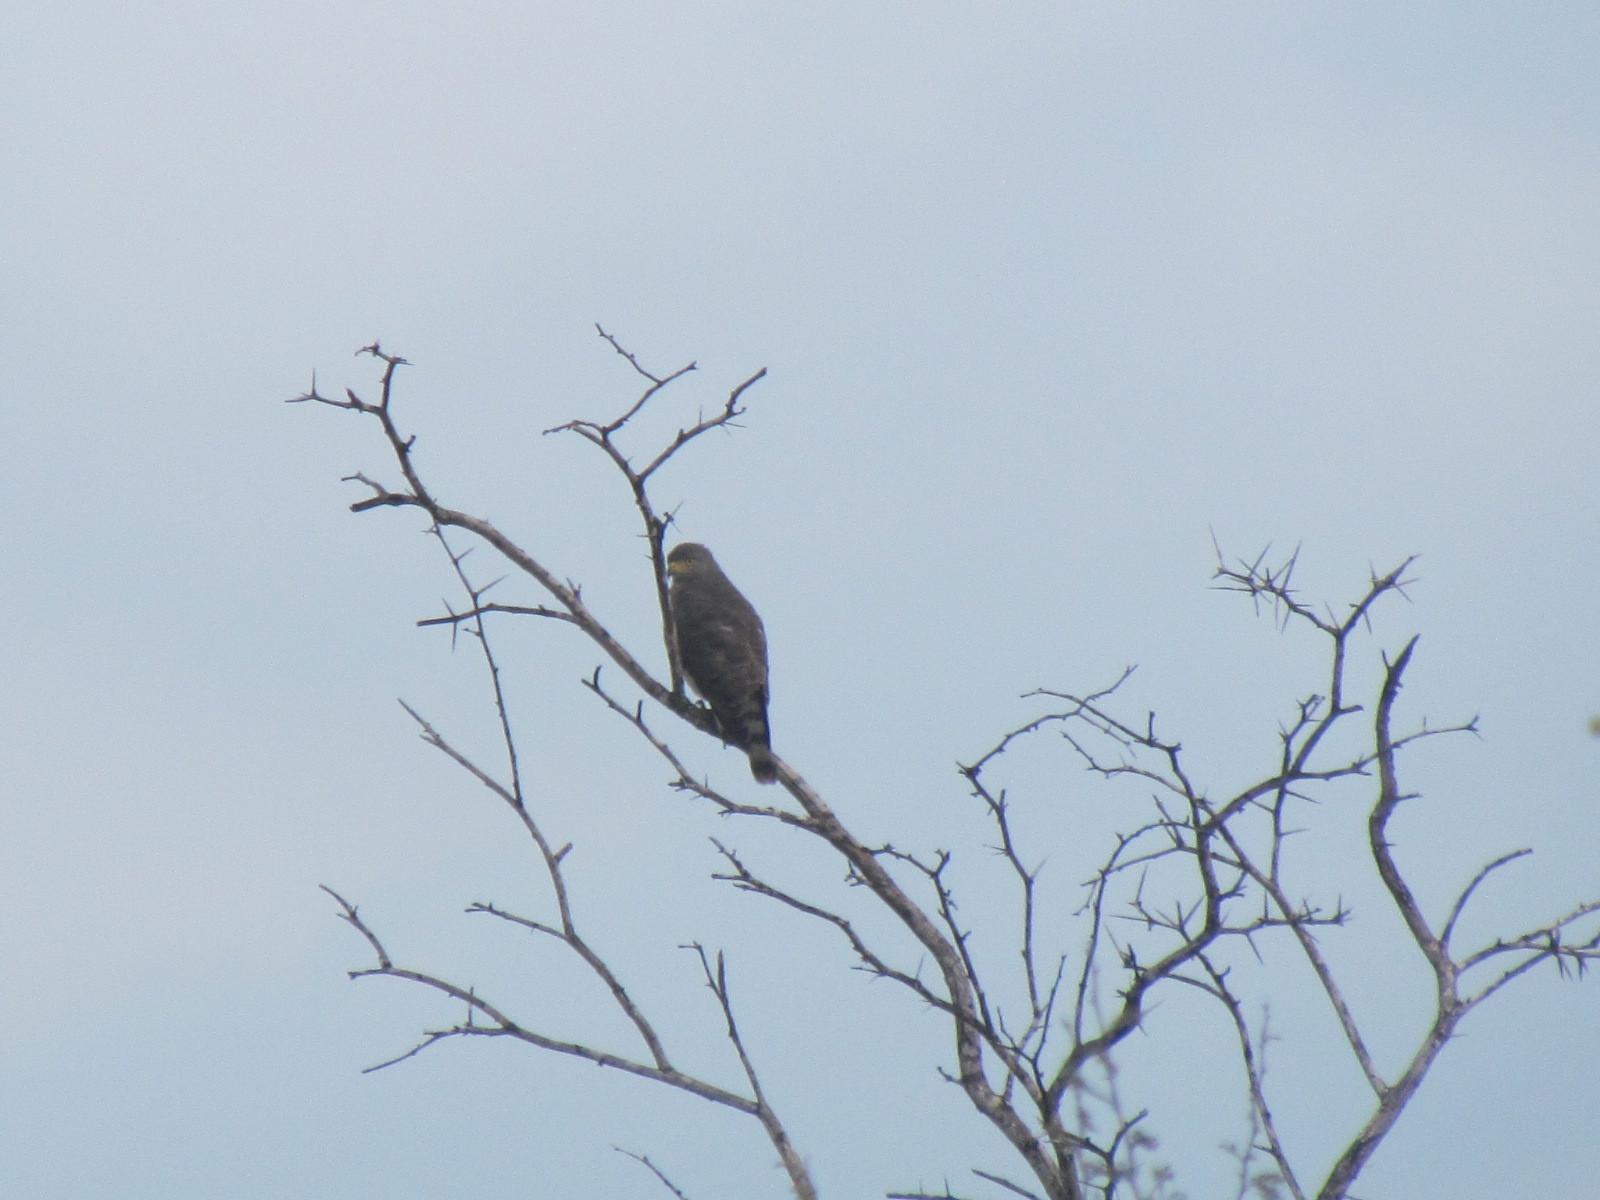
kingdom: Animalia
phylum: Chordata
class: Aves
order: Accipitriformes
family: Accipitridae
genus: Rupornis
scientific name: Rupornis magnirostris
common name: Roadside hawk
